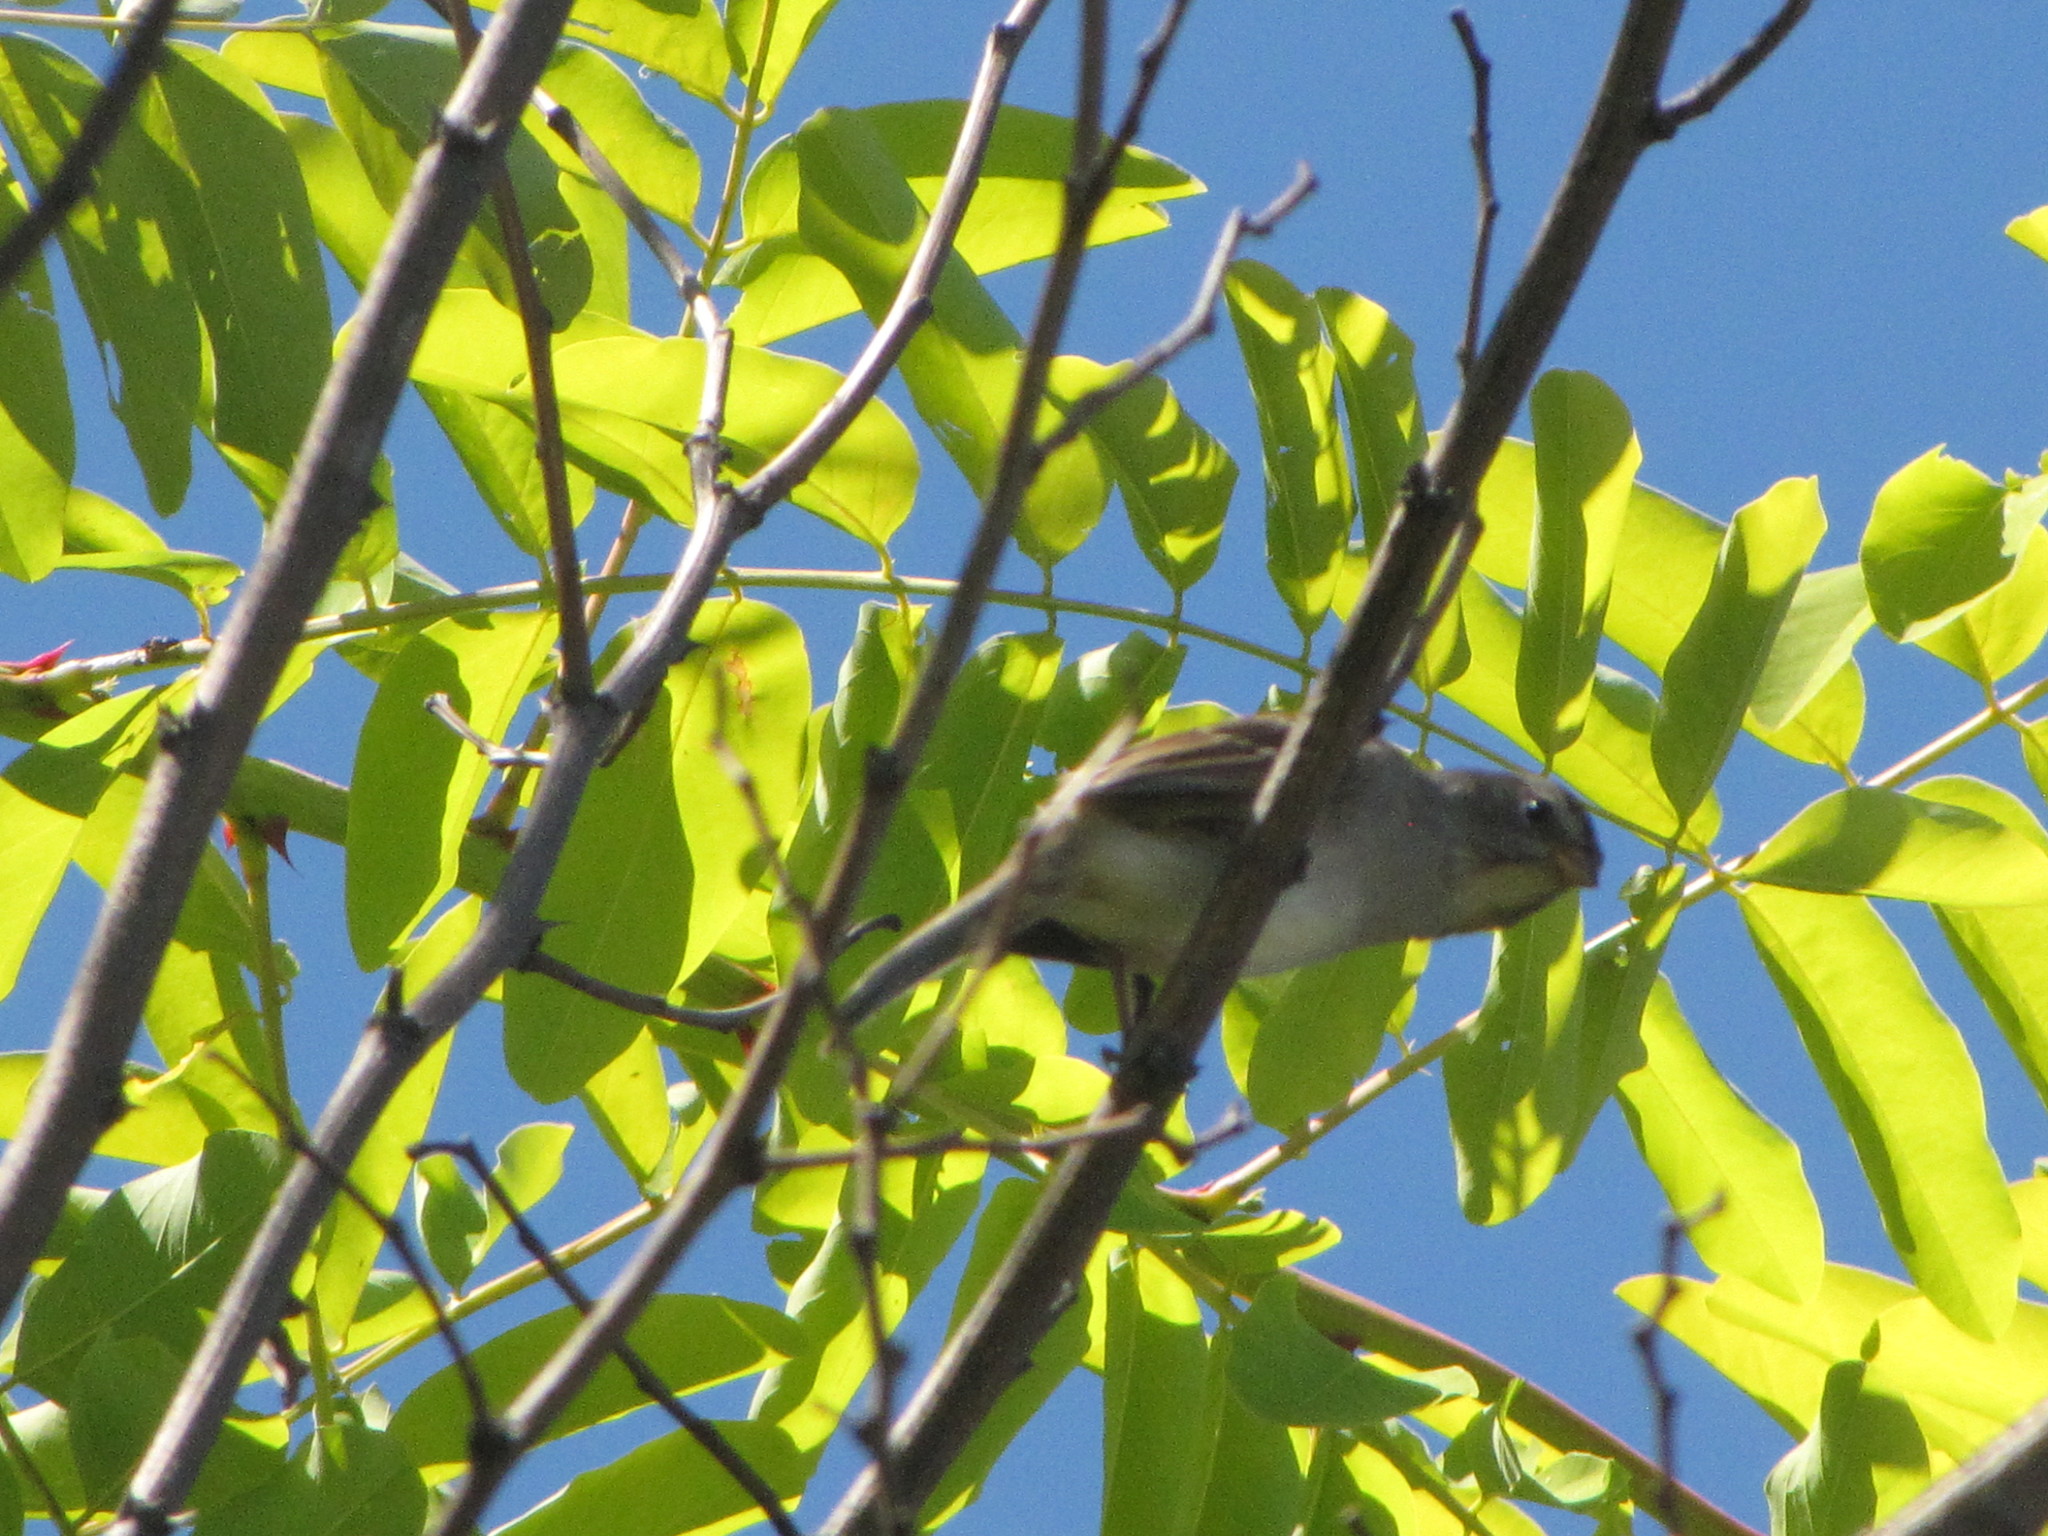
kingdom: Animalia
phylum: Chordata
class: Aves
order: Passeriformes
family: Passerellidae
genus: Zonotrichia
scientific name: Zonotrichia leucophrys
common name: White-crowned sparrow
